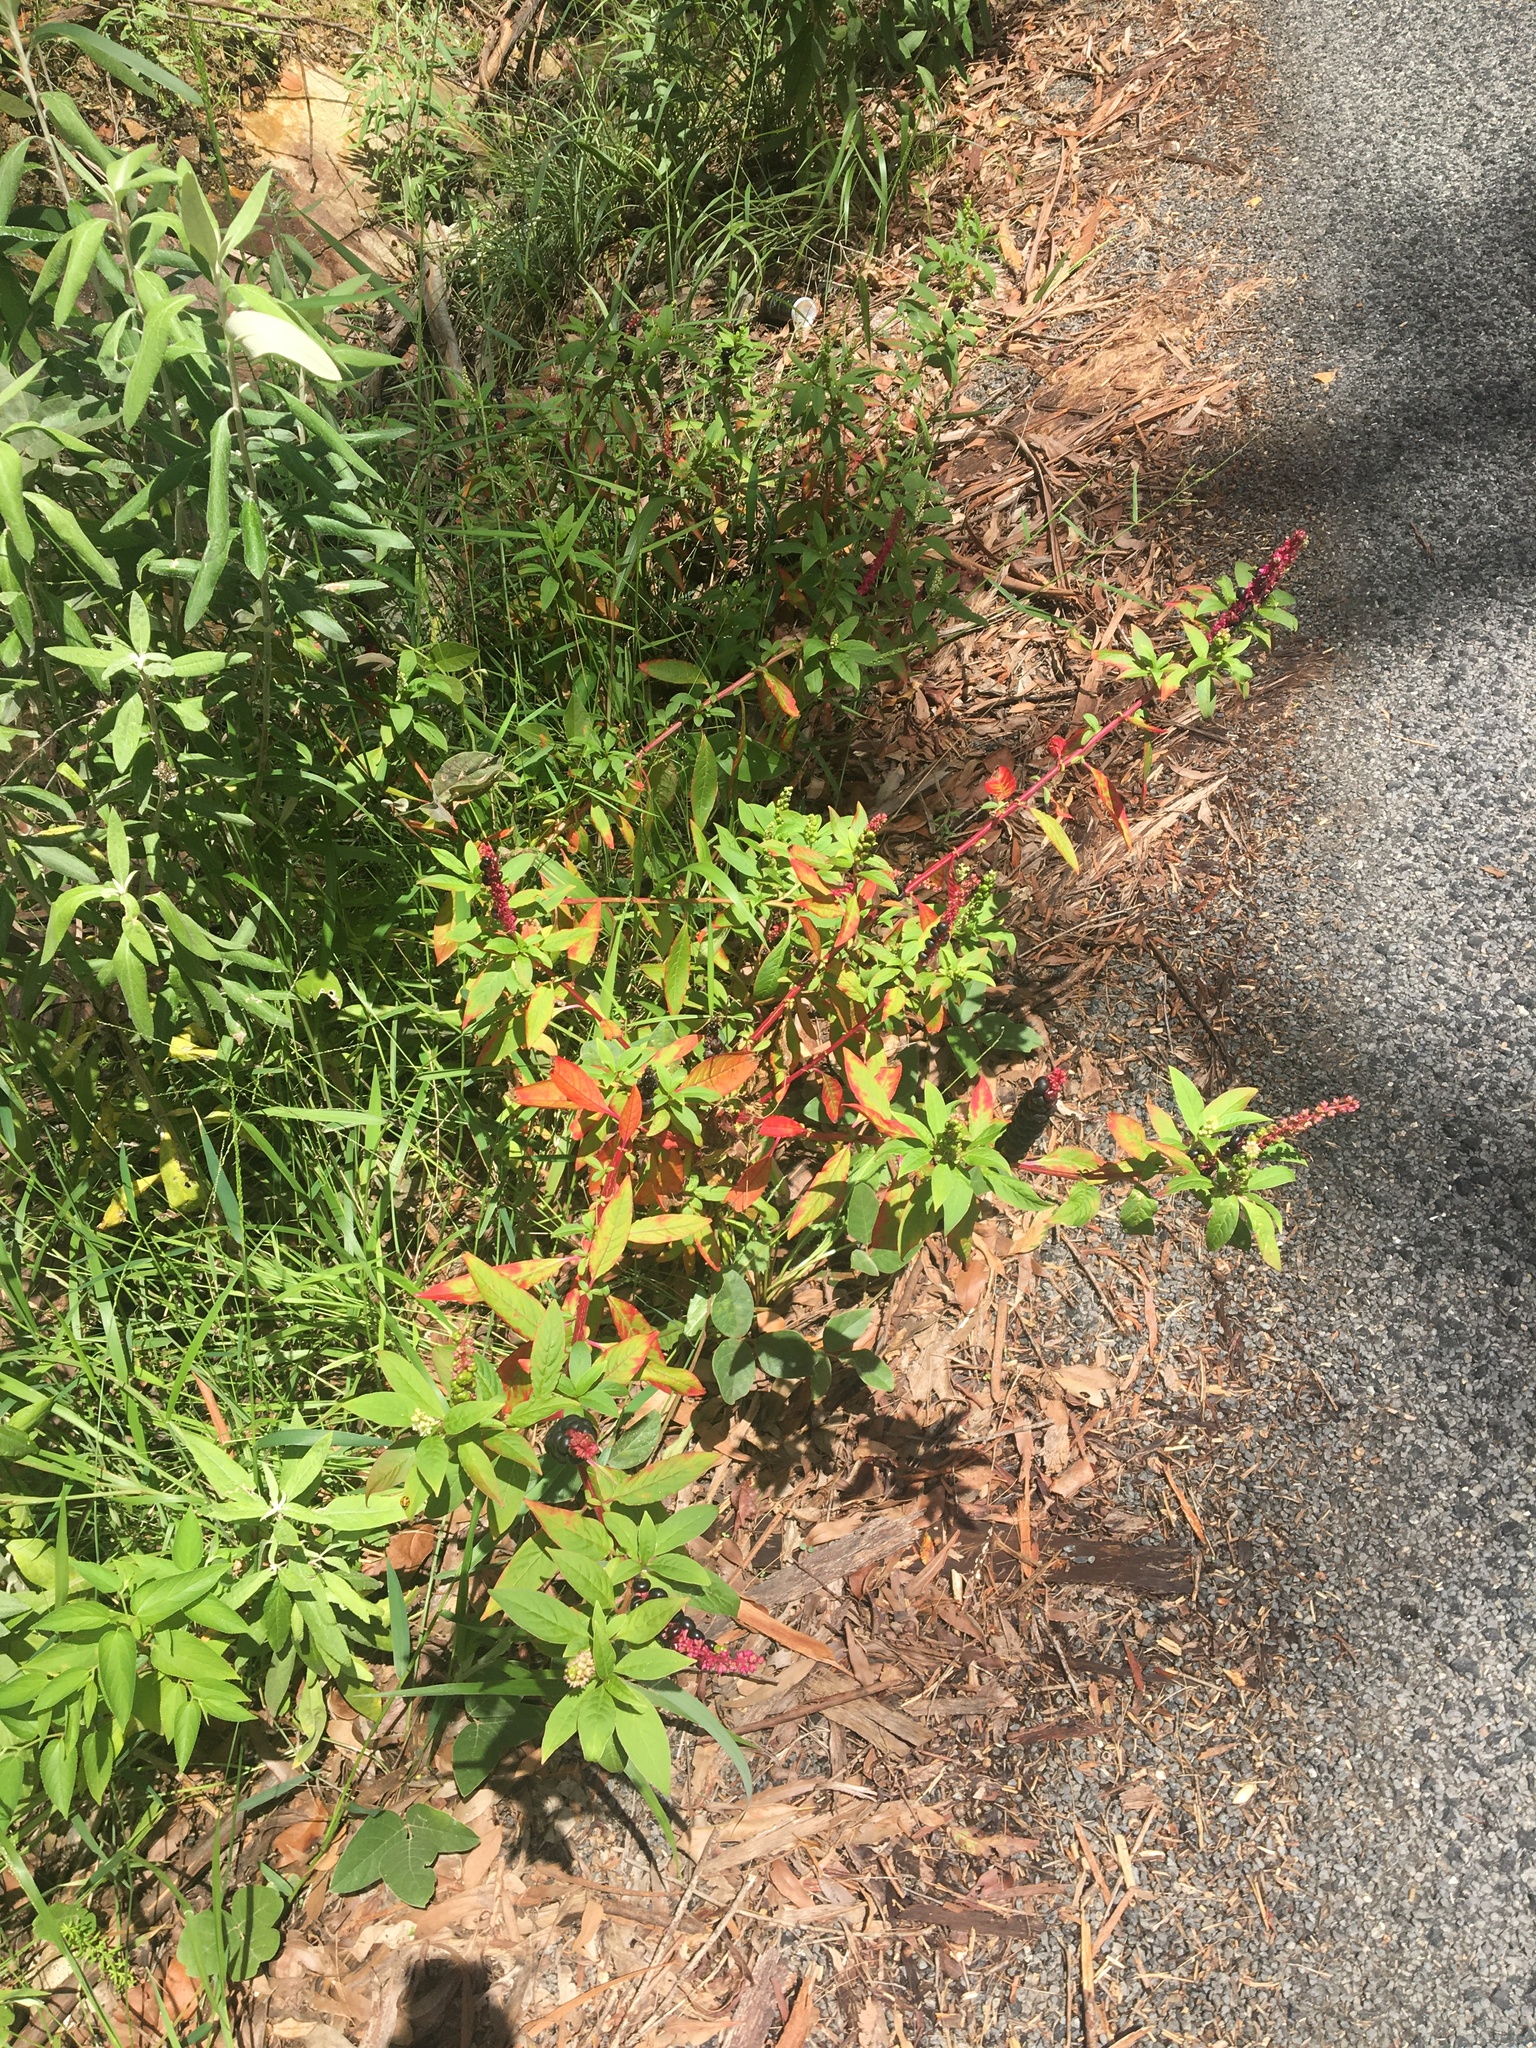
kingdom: Plantae
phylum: Tracheophyta
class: Magnoliopsida
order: Caryophyllales
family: Phytolaccaceae
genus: Phytolacca
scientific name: Phytolacca icosandra
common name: Button pokeweed
